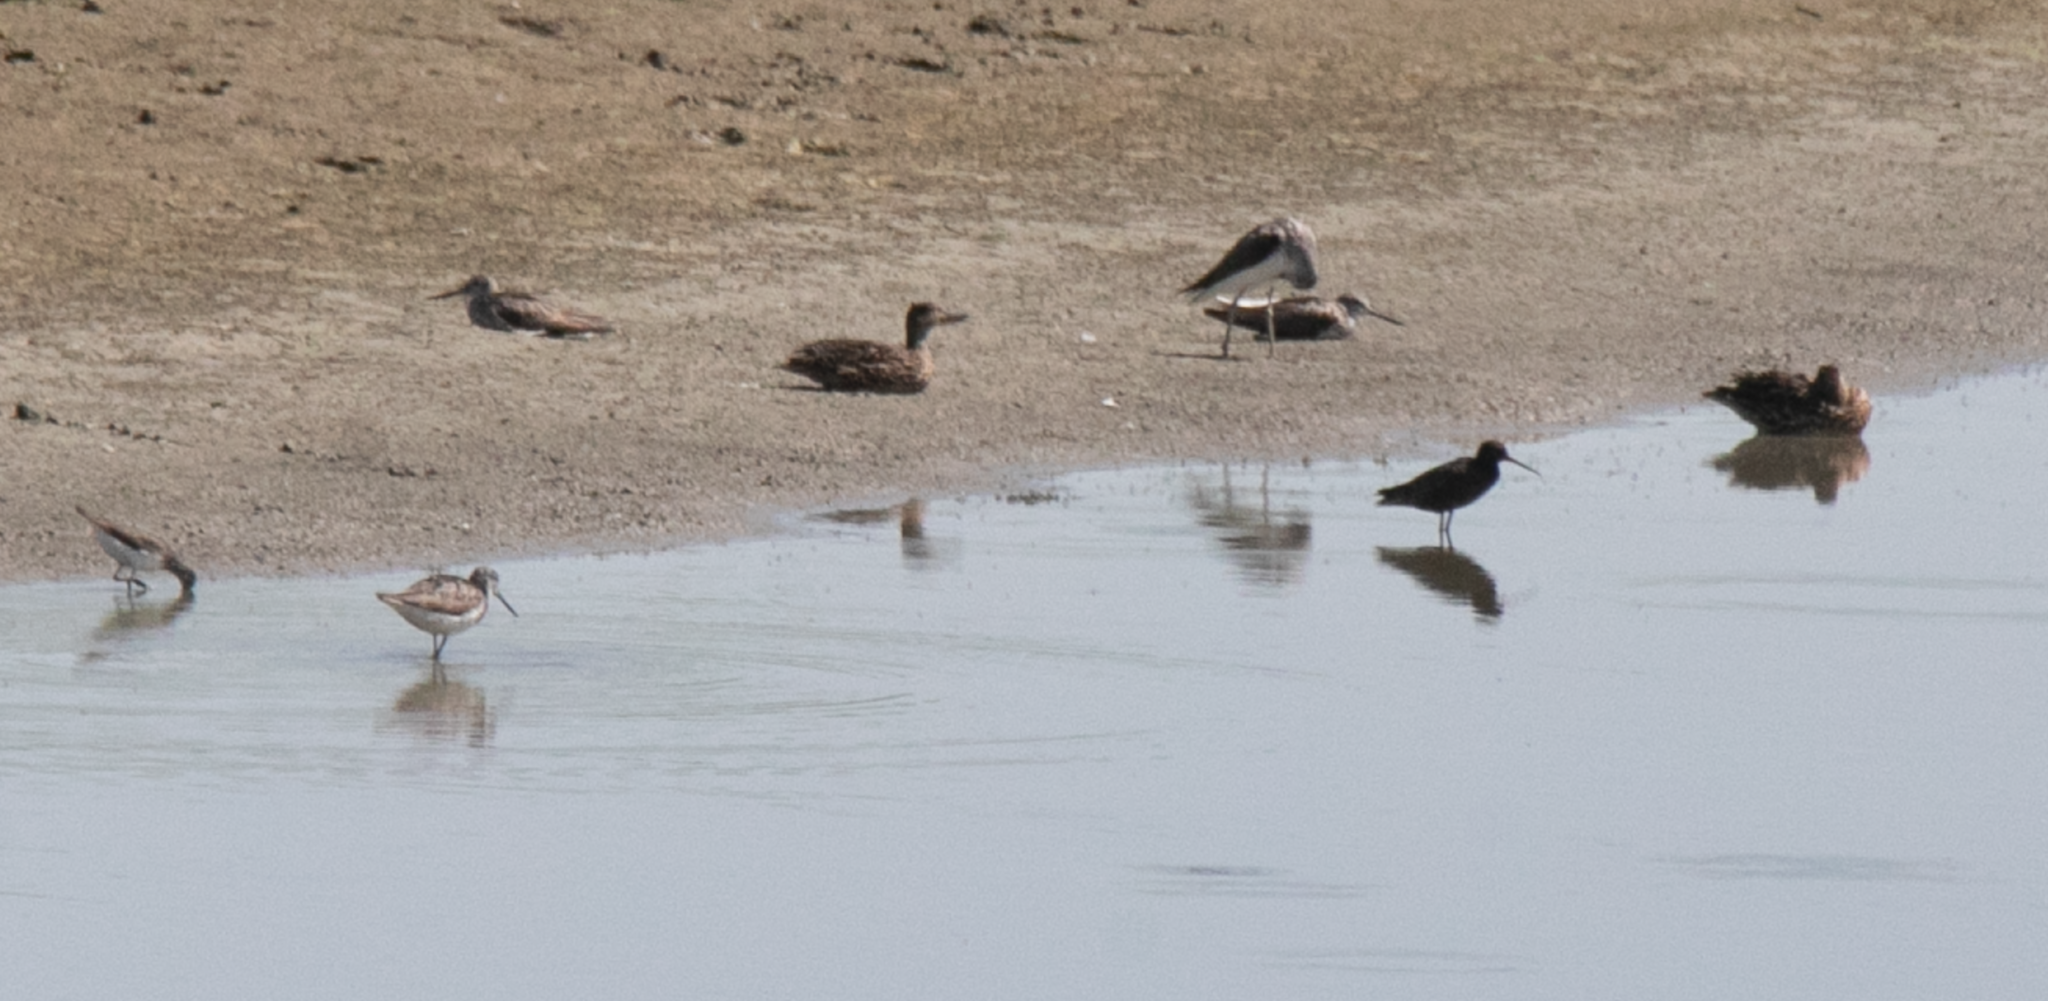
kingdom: Animalia
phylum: Chordata
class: Aves
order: Charadriiformes
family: Scolopacidae
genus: Tringa
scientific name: Tringa erythropus
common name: Spotted redshank
